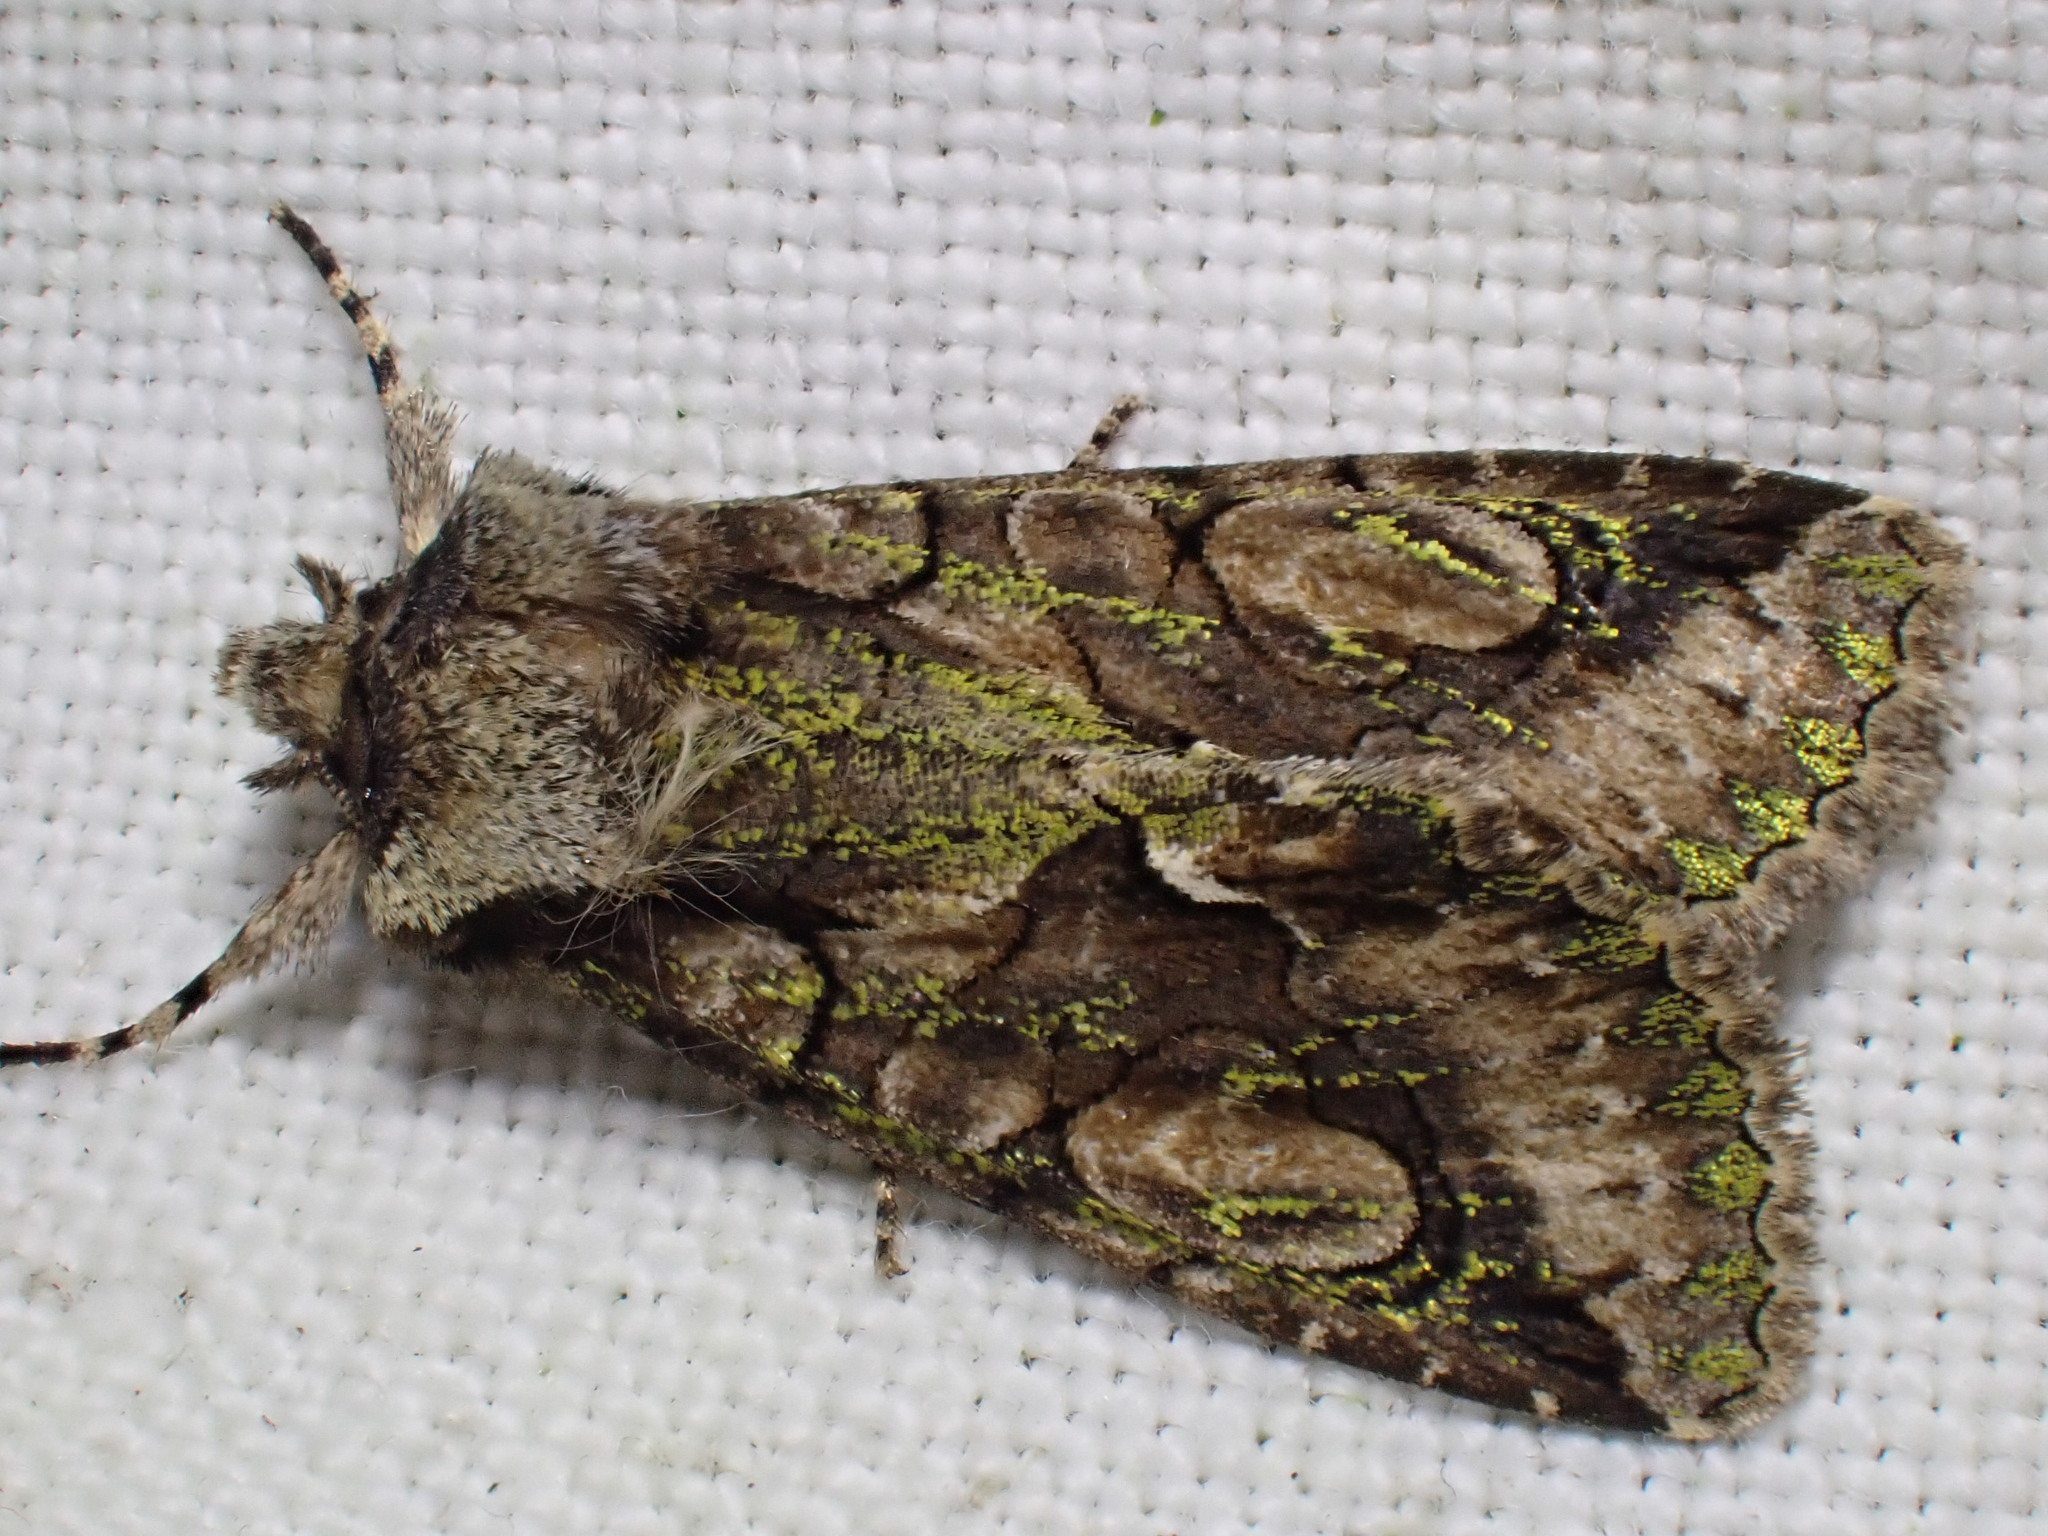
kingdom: Animalia
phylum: Arthropoda
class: Insecta
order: Lepidoptera
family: Noctuidae
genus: Allophyes
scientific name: Allophyes oxyacanthae
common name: Green-brindled crescent
